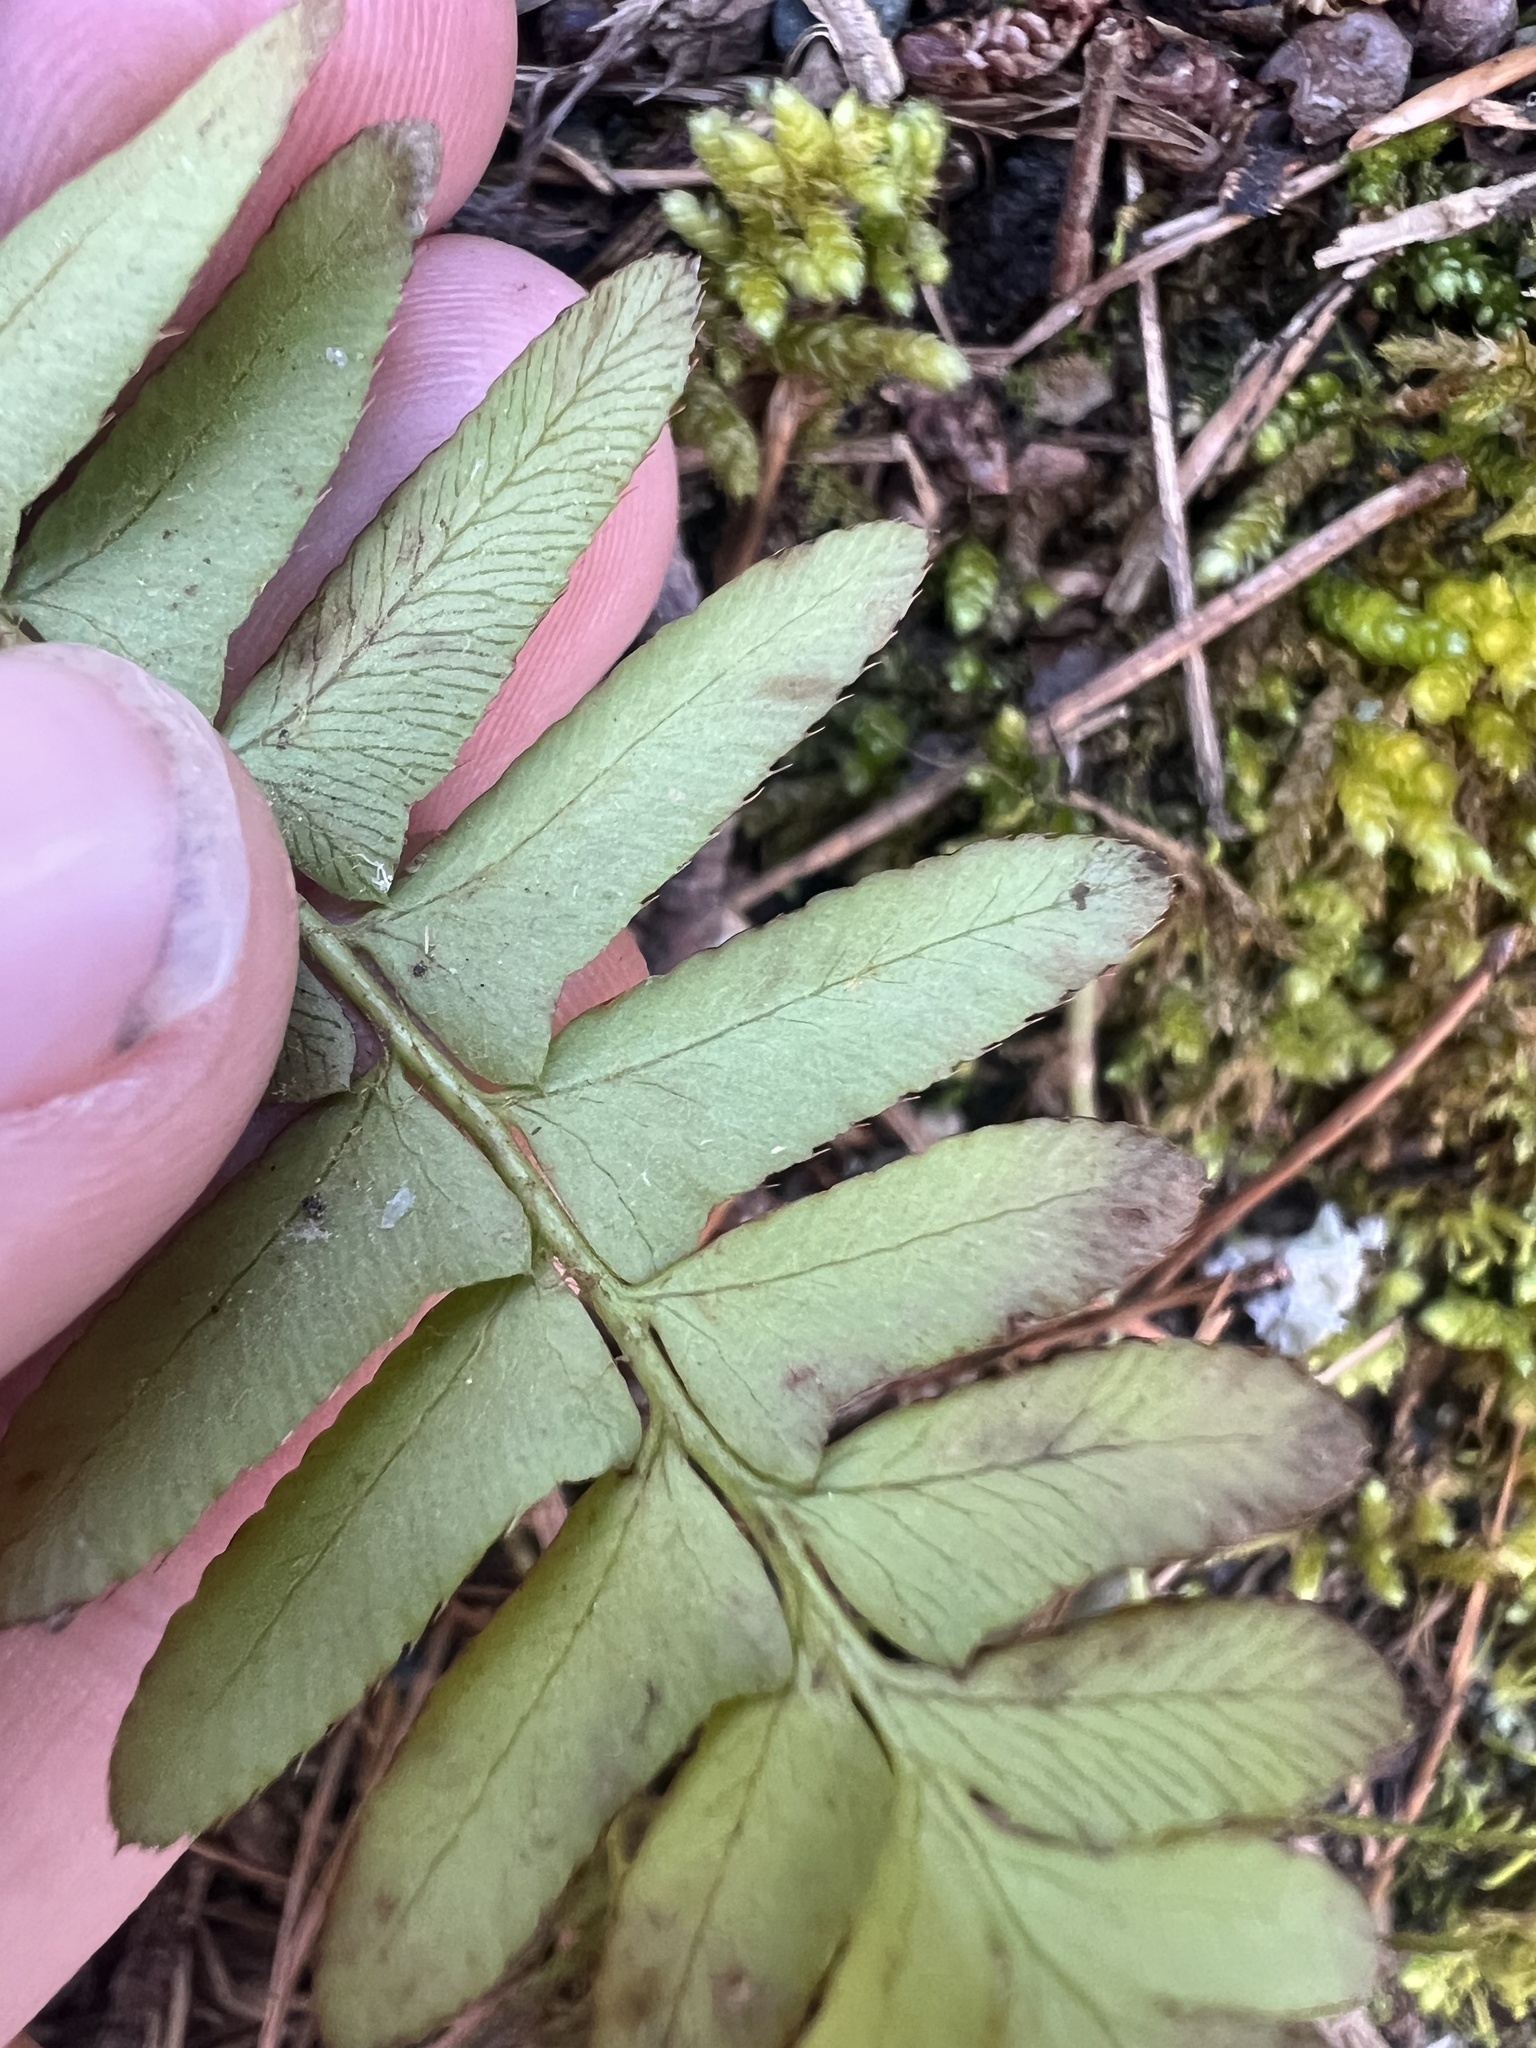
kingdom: Plantae
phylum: Tracheophyta
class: Polypodiopsida
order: Polypodiales
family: Dryopteridaceae
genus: Polystichum
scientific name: Polystichum acrostichoides
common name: Christmas fern
